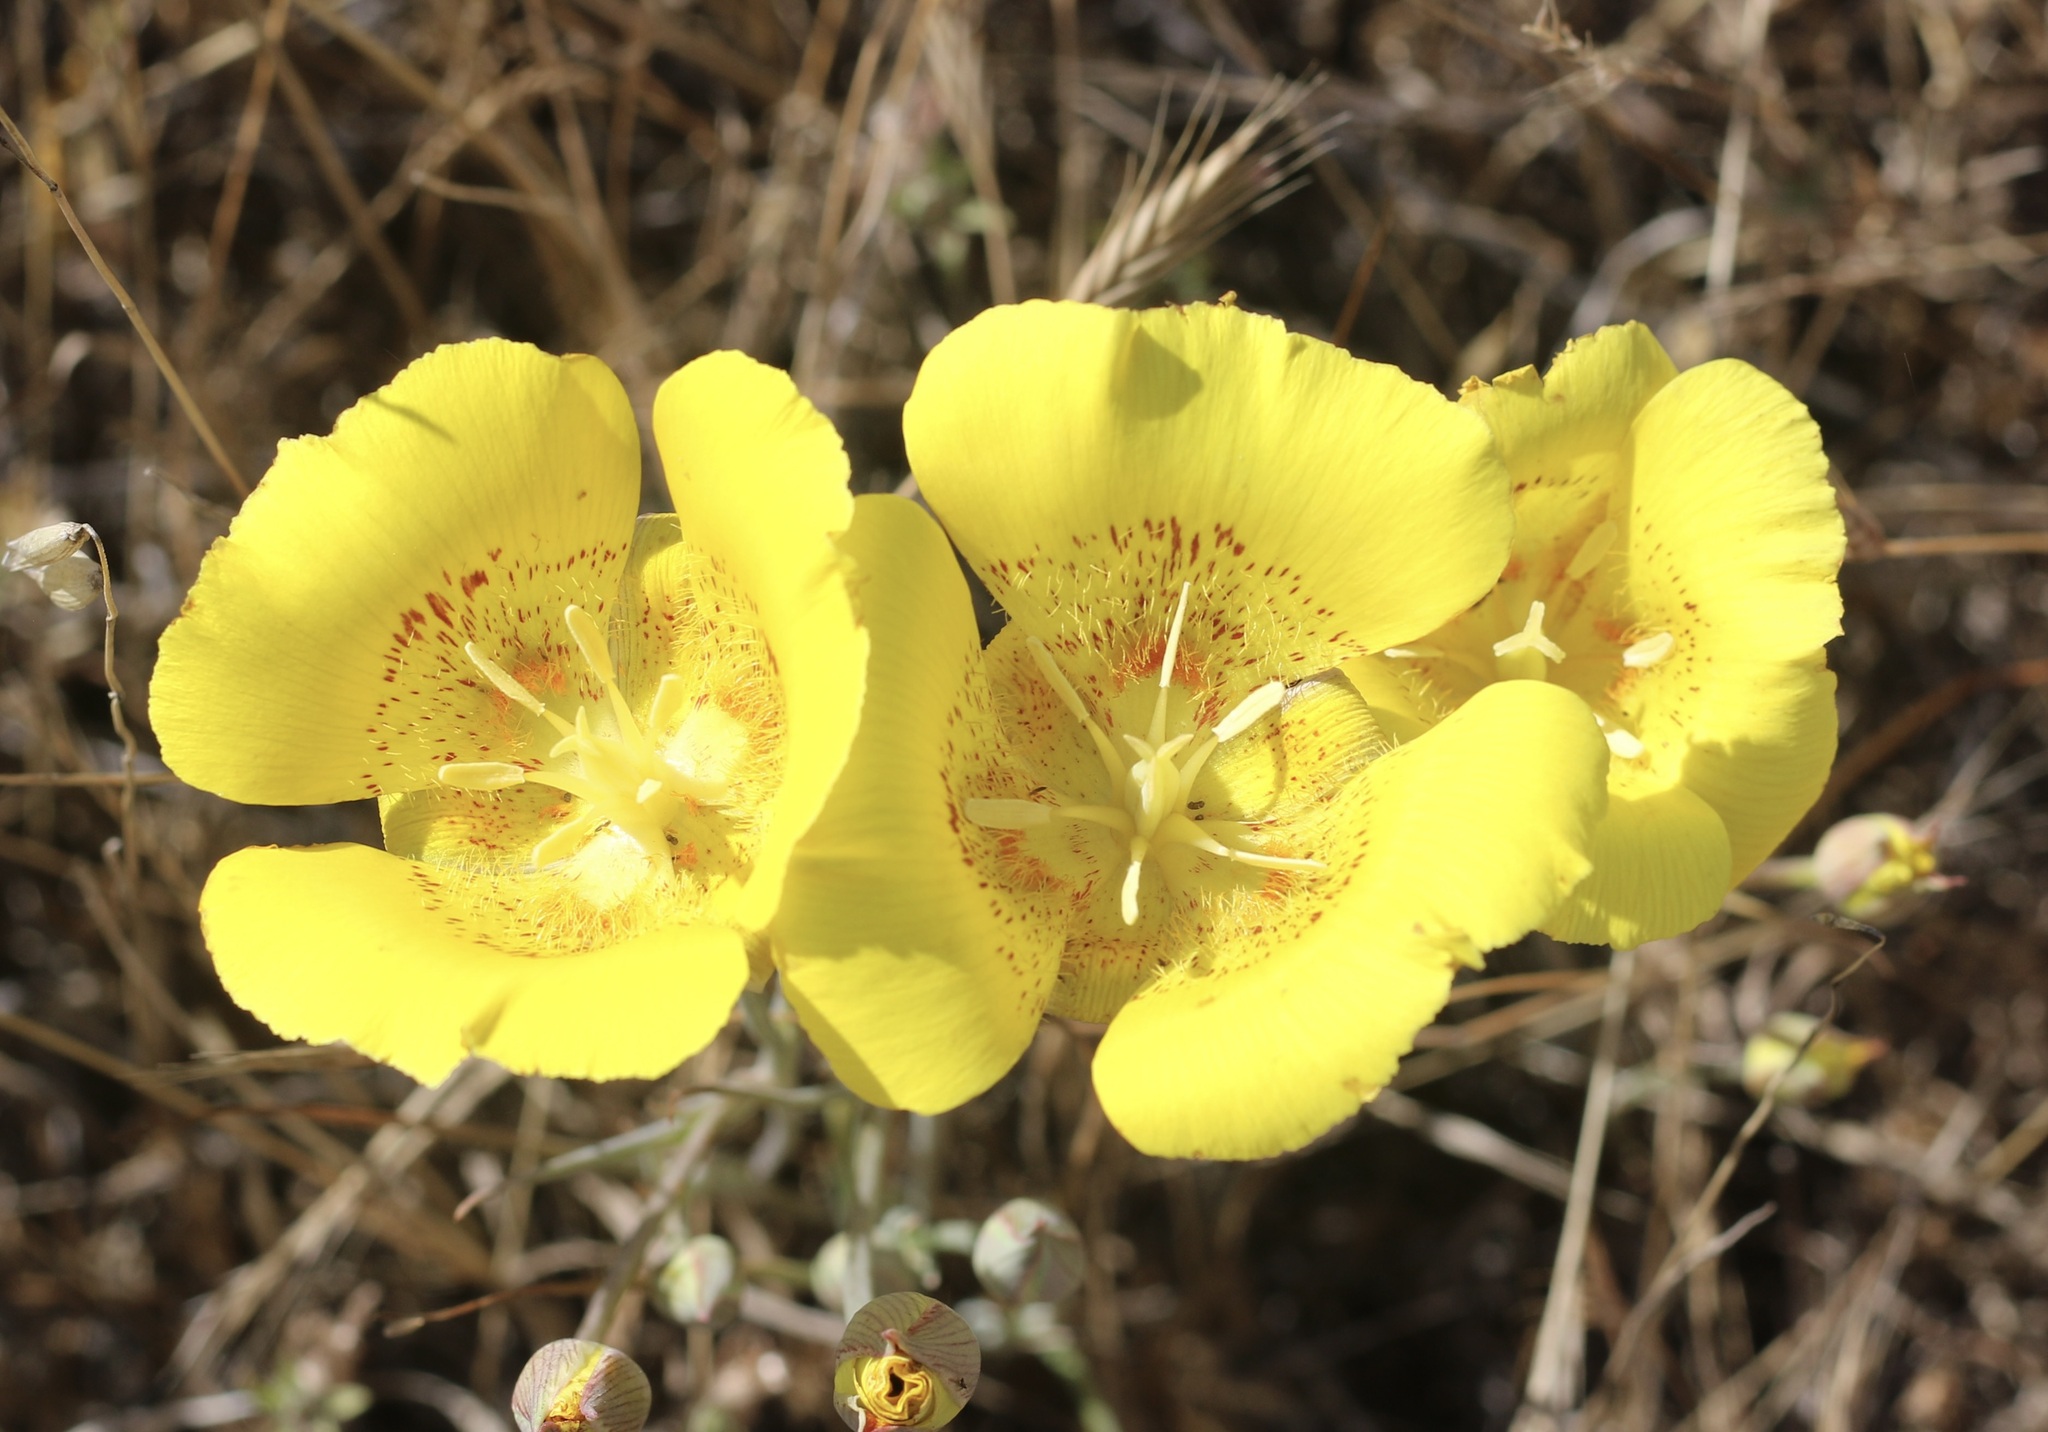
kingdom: Plantae
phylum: Tracheophyta
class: Liliopsida
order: Liliales
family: Liliaceae
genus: Calochortus
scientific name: Calochortus luteus
